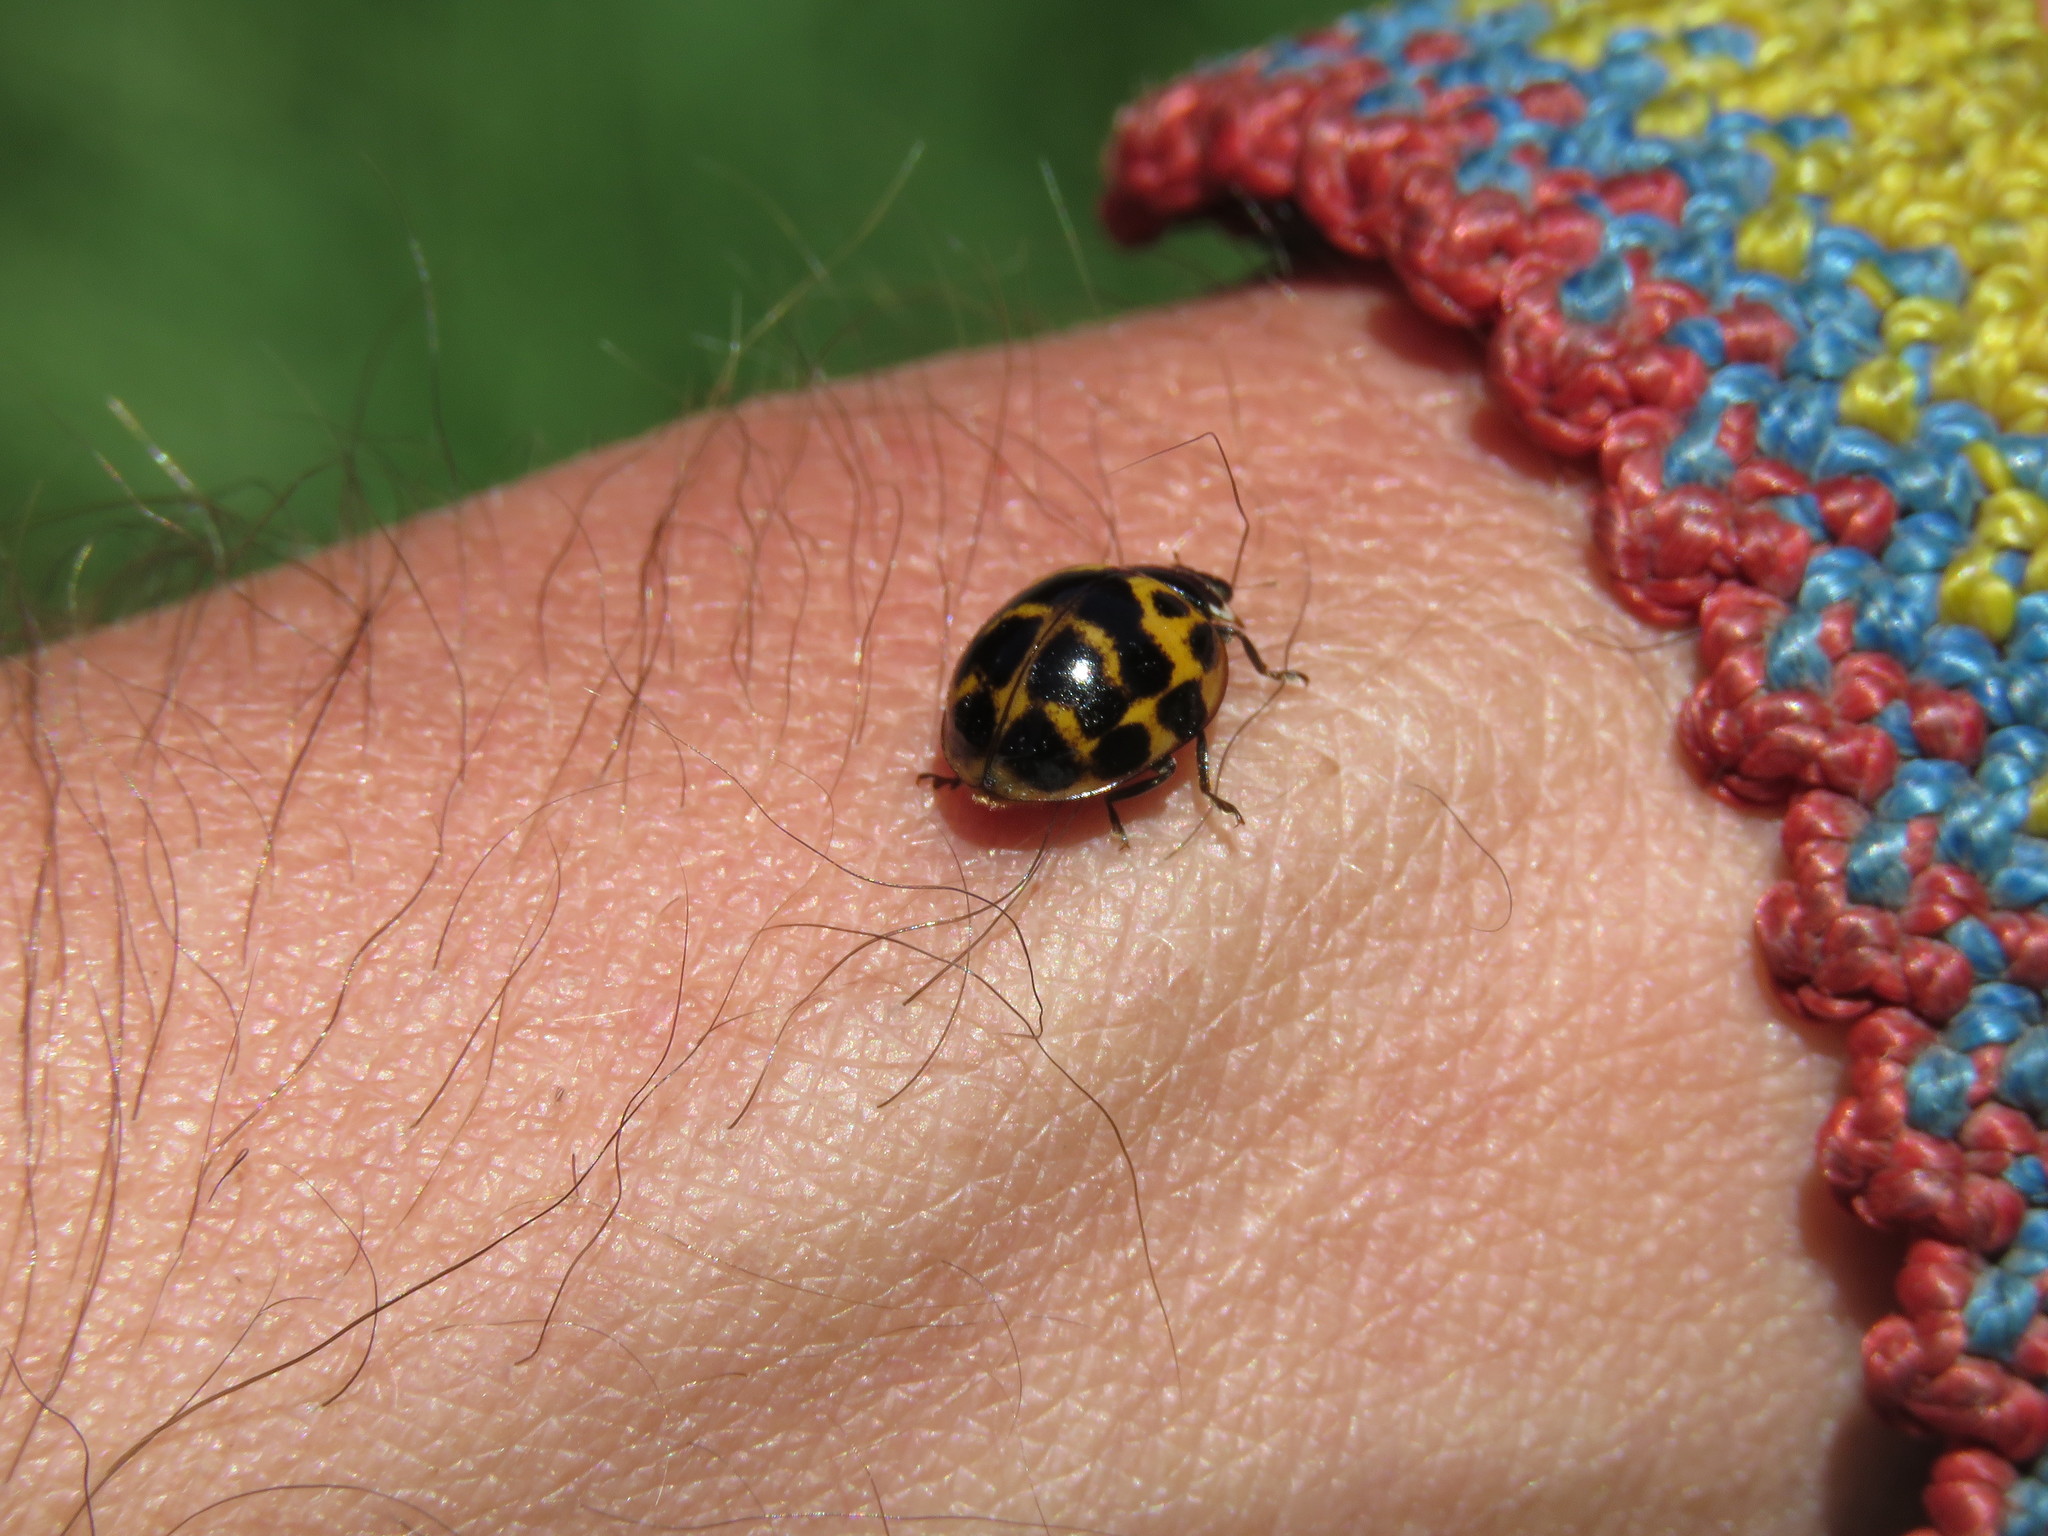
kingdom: Animalia
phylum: Arthropoda
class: Insecta
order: Coleoptera
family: Coccinellidae
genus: Harmonia
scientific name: Harmonia axyridis
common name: Harlequin ladybird
